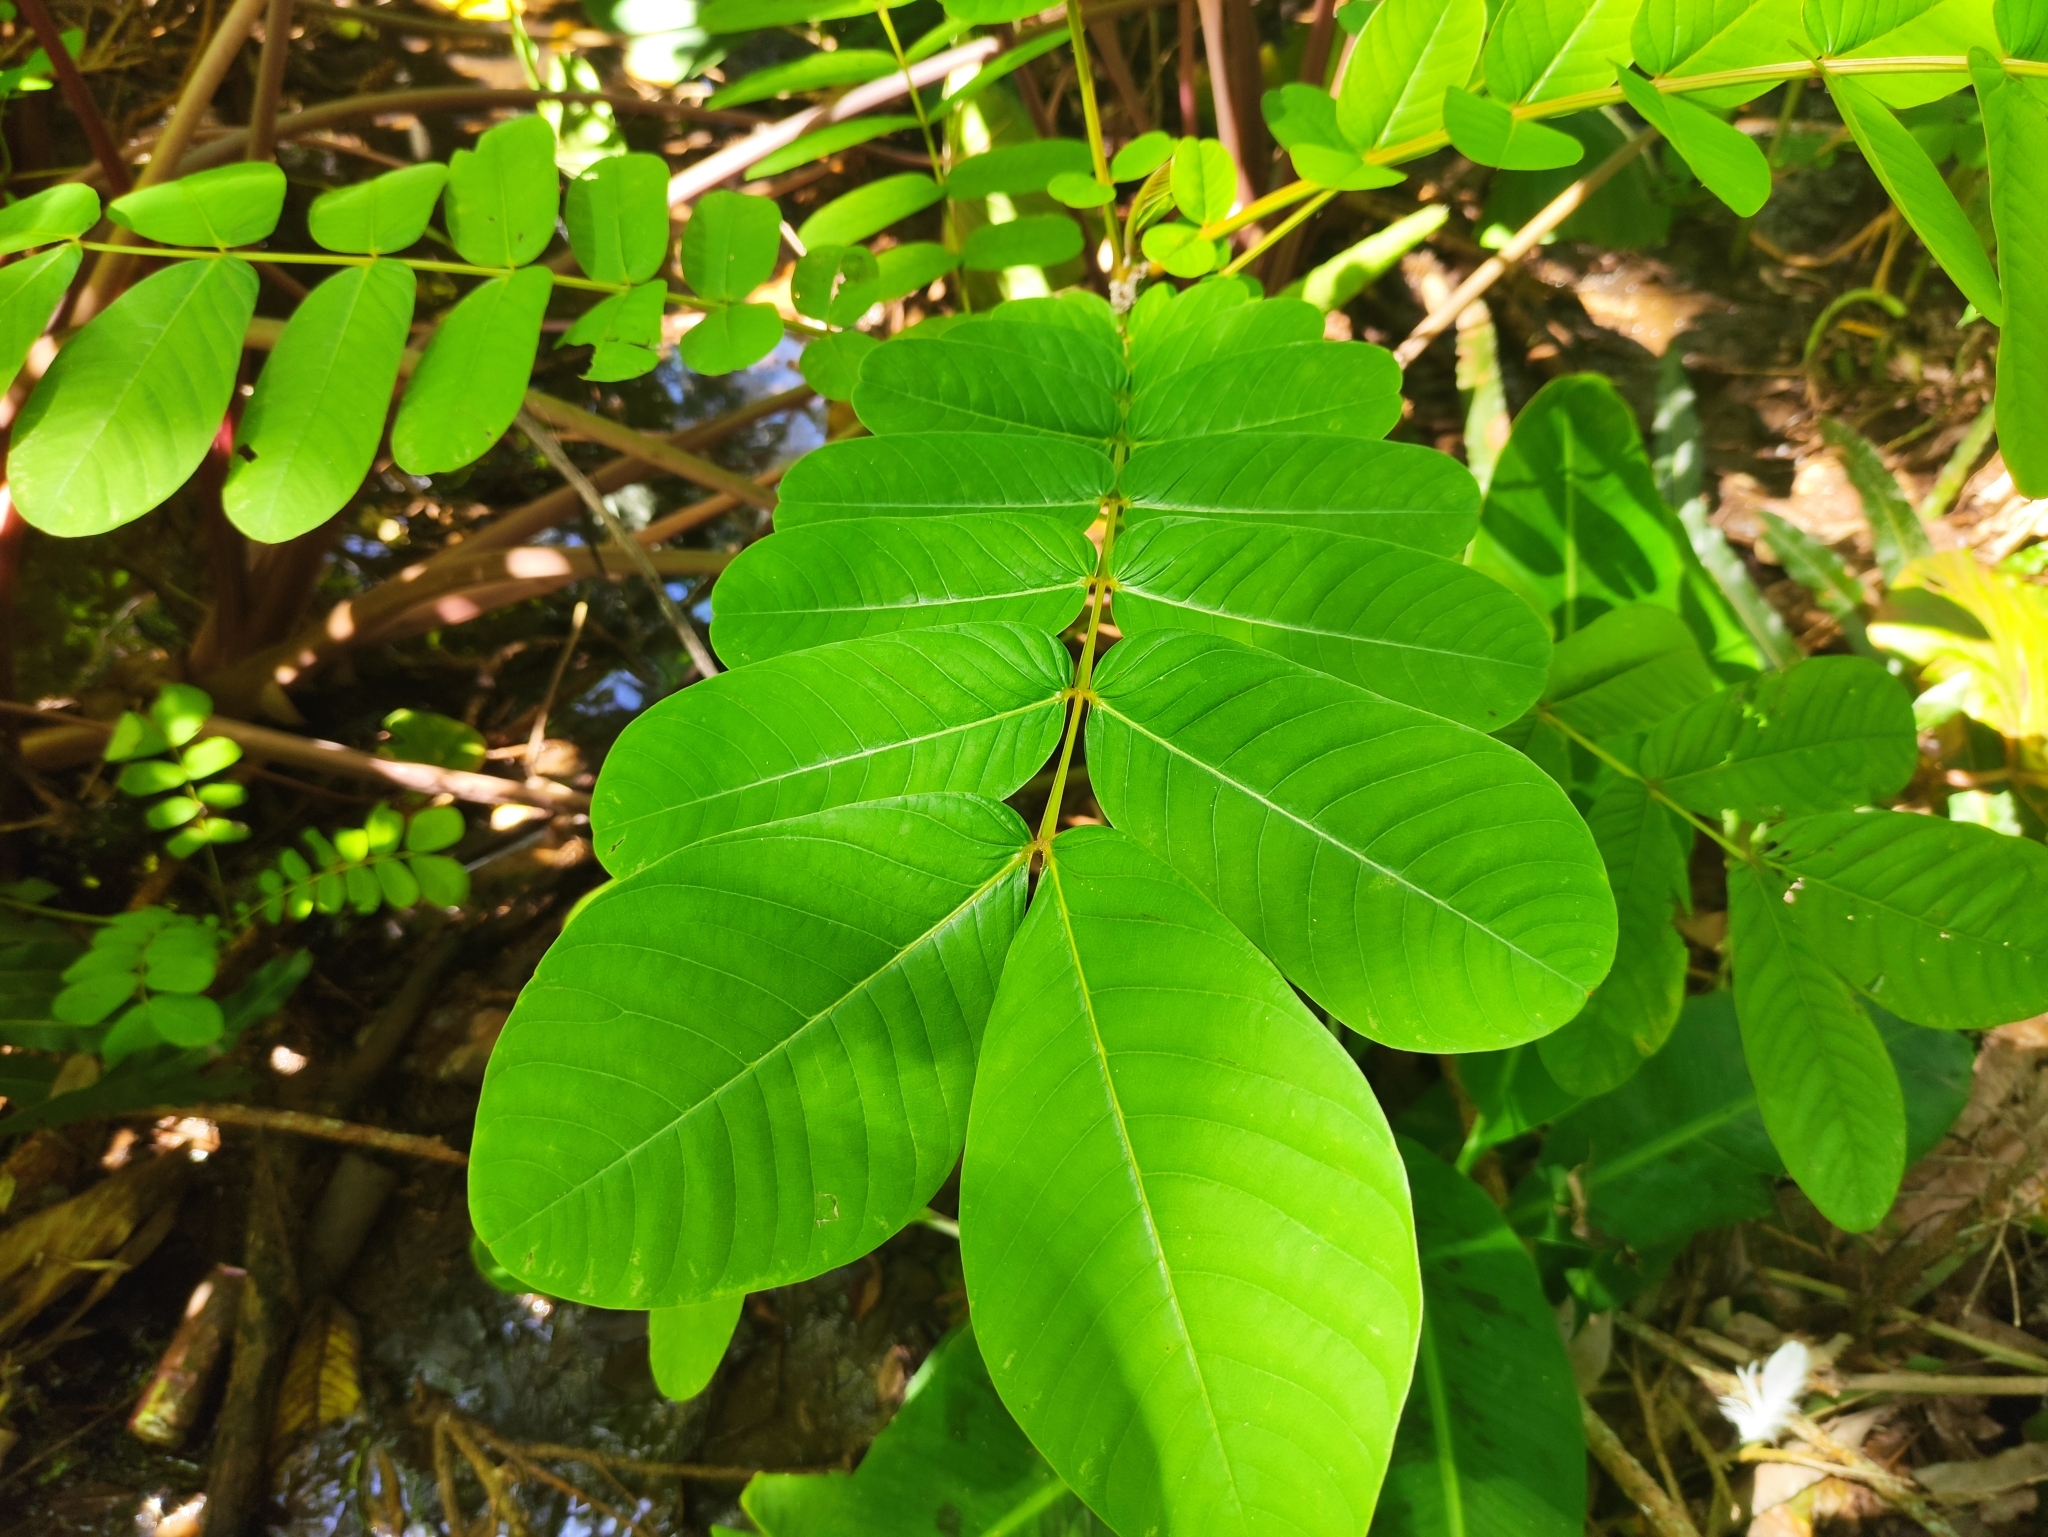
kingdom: Plantae
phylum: Tracheophyta
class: Magnoliopsida
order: Fabales
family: Fabaceae
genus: Senna
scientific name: Senna alata
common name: Emperor's candlesticks
